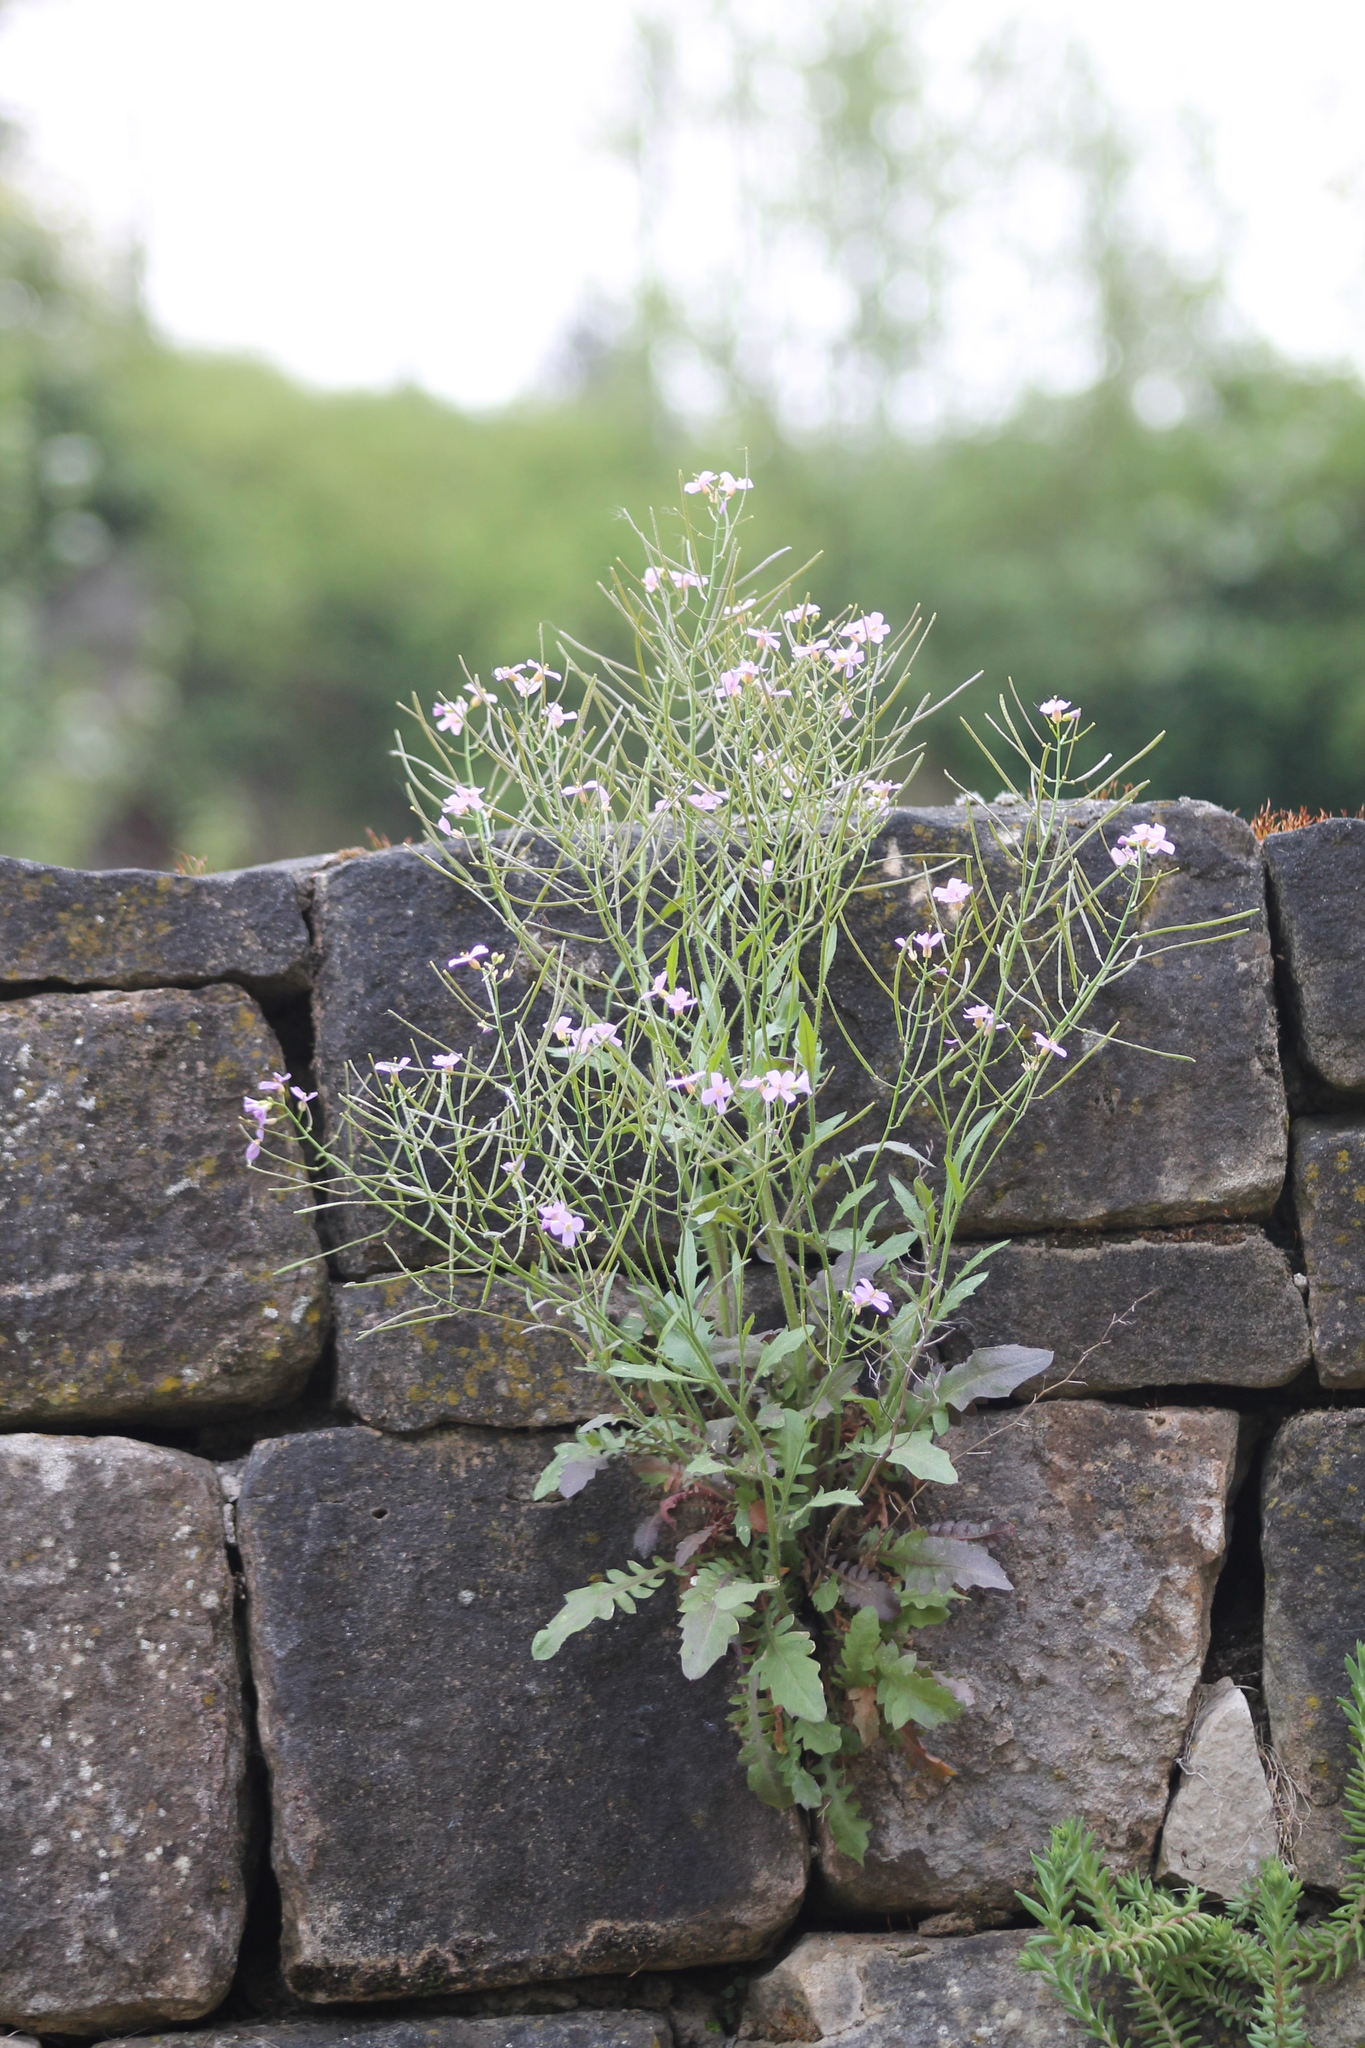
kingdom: Plantae
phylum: Tracheophyta
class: Magnoliopsida
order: Brassicales
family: Brassicaceae
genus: Arabidopsis
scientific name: Arabidopsis arenosa
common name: Sand rock-cress
